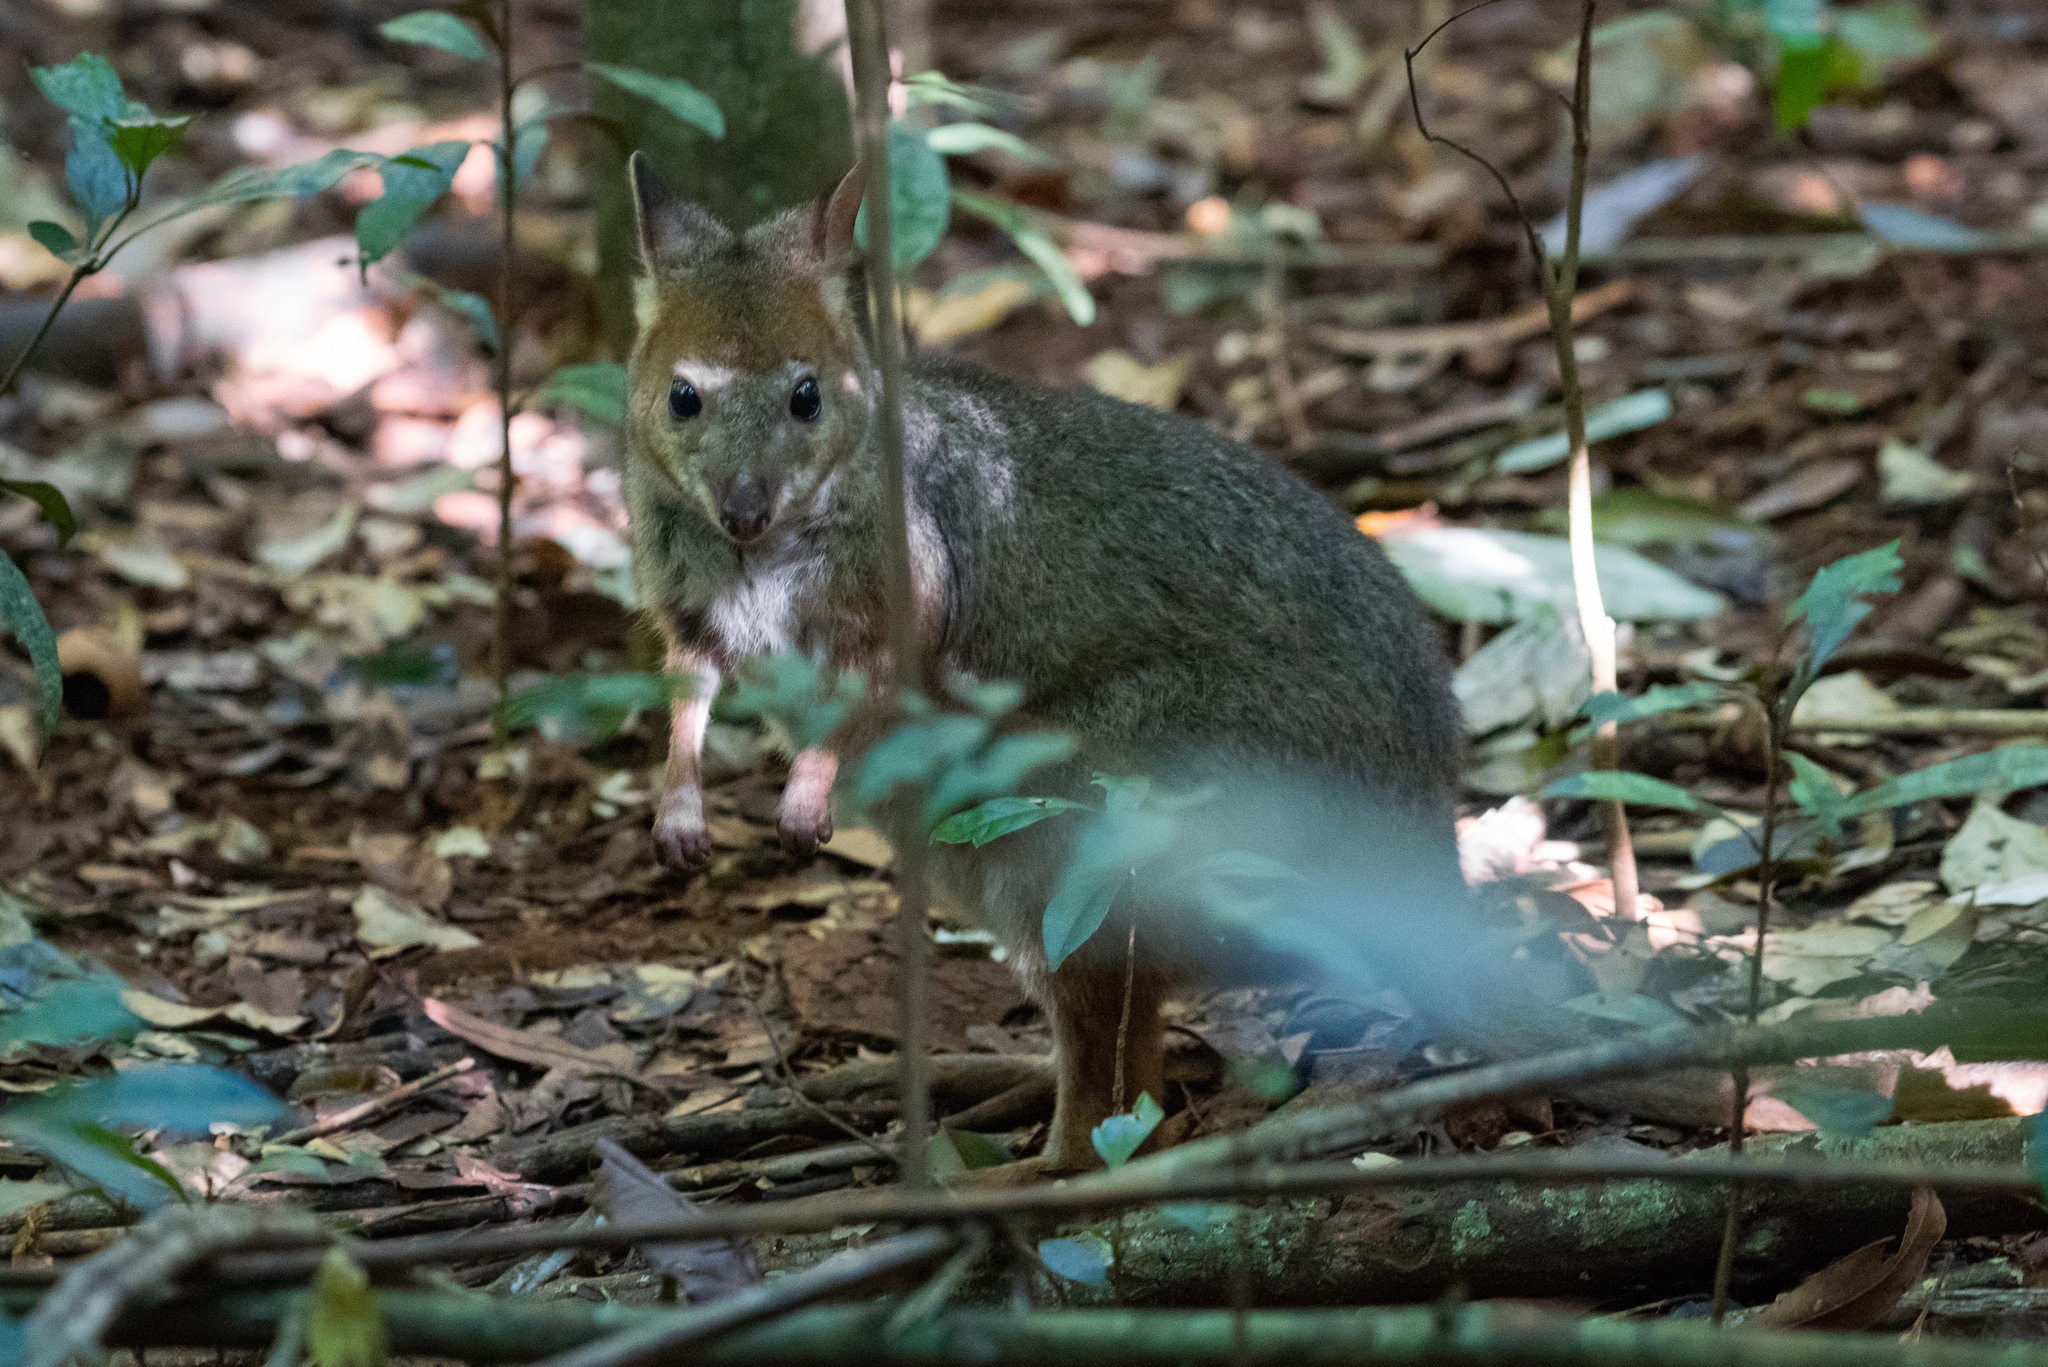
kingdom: Animalia
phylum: Chordata
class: Mammalia
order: Diprotodontia
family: Macropodidae
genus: Thylogale
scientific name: Thylogale stigmatica
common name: Red-legged pademelon
